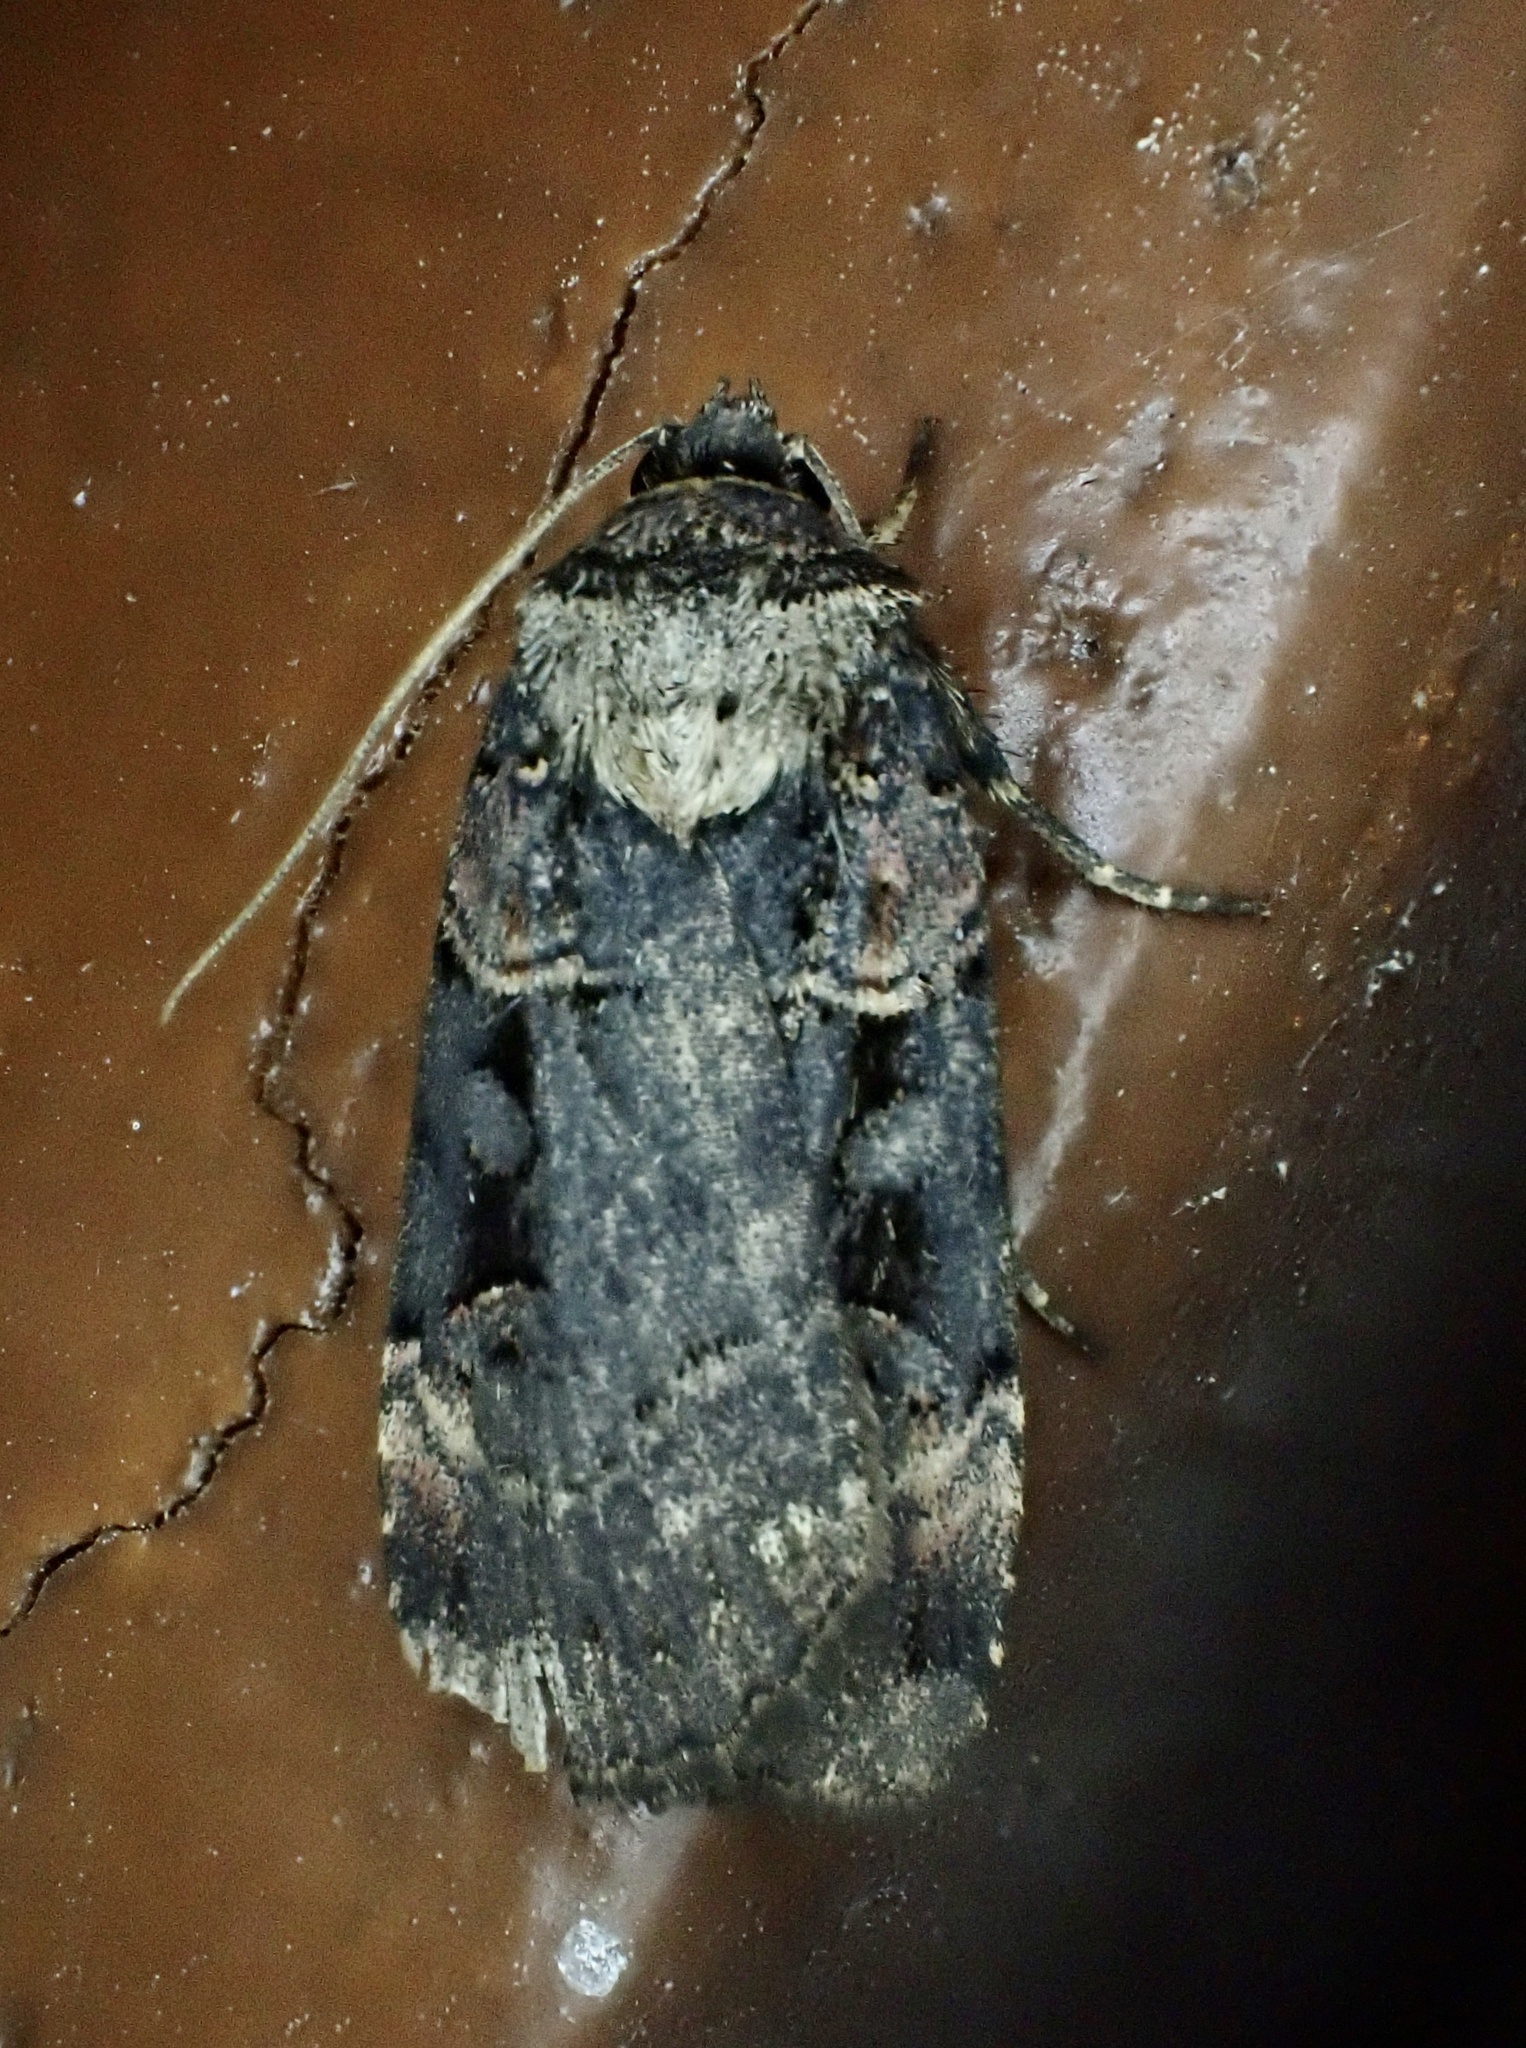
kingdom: Animalia
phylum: Arthropoda
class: Insecta
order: Lepidoptera
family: Noctuidae
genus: Pseudohermonassa
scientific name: Pseudohermonassa bicarnea
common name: Pink spotted dart
